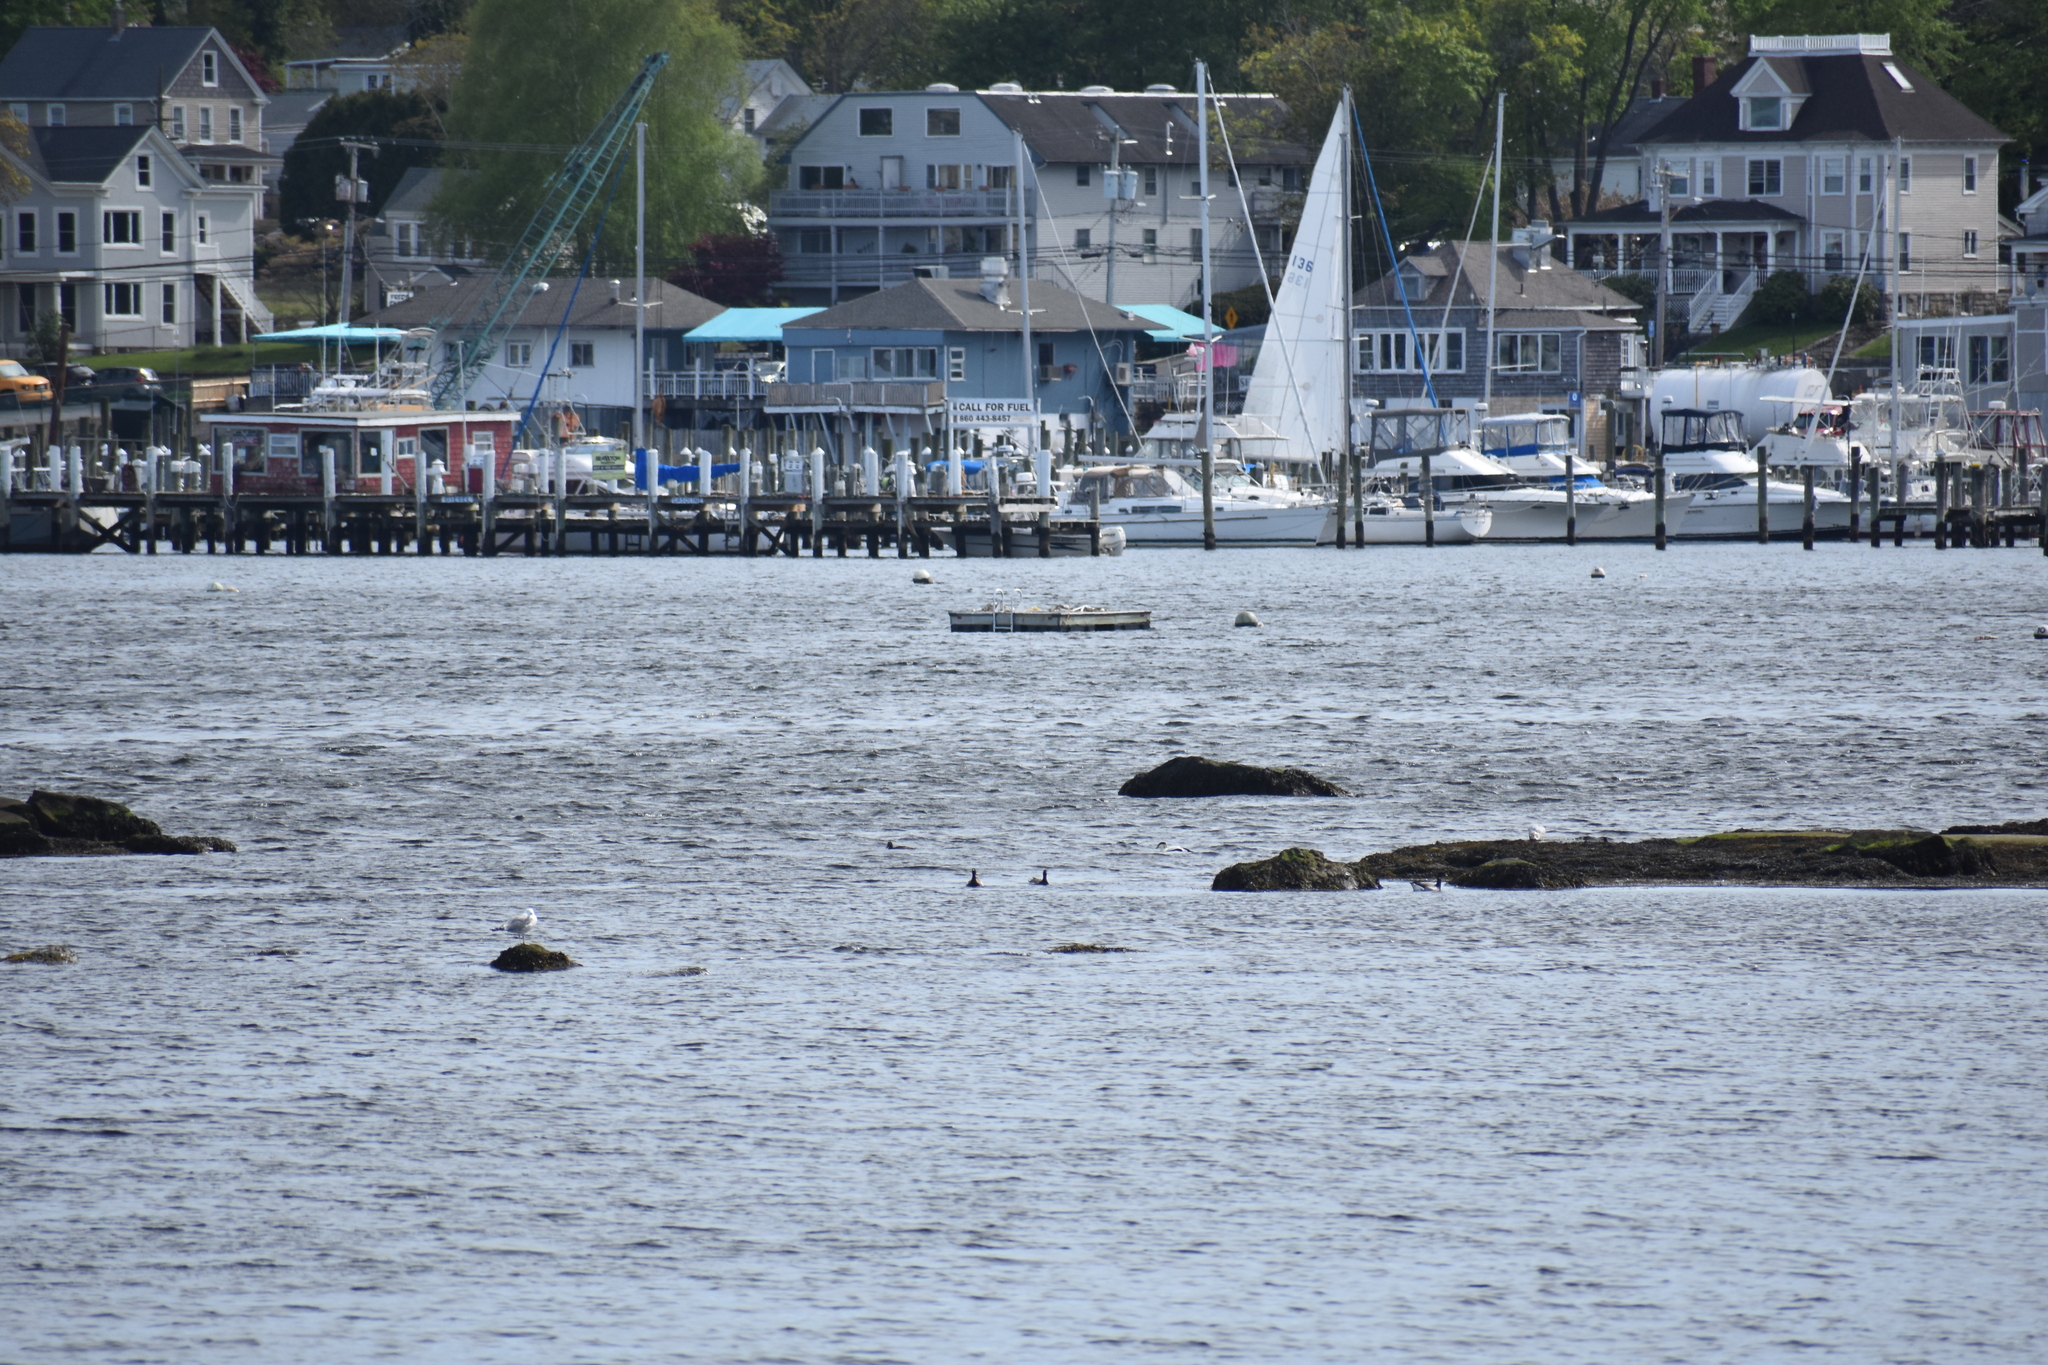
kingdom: Animalia
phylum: Chordata
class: Aves
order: Anseriformes
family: Anatidae
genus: Branta
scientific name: Branta bernicla
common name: Brant goose
